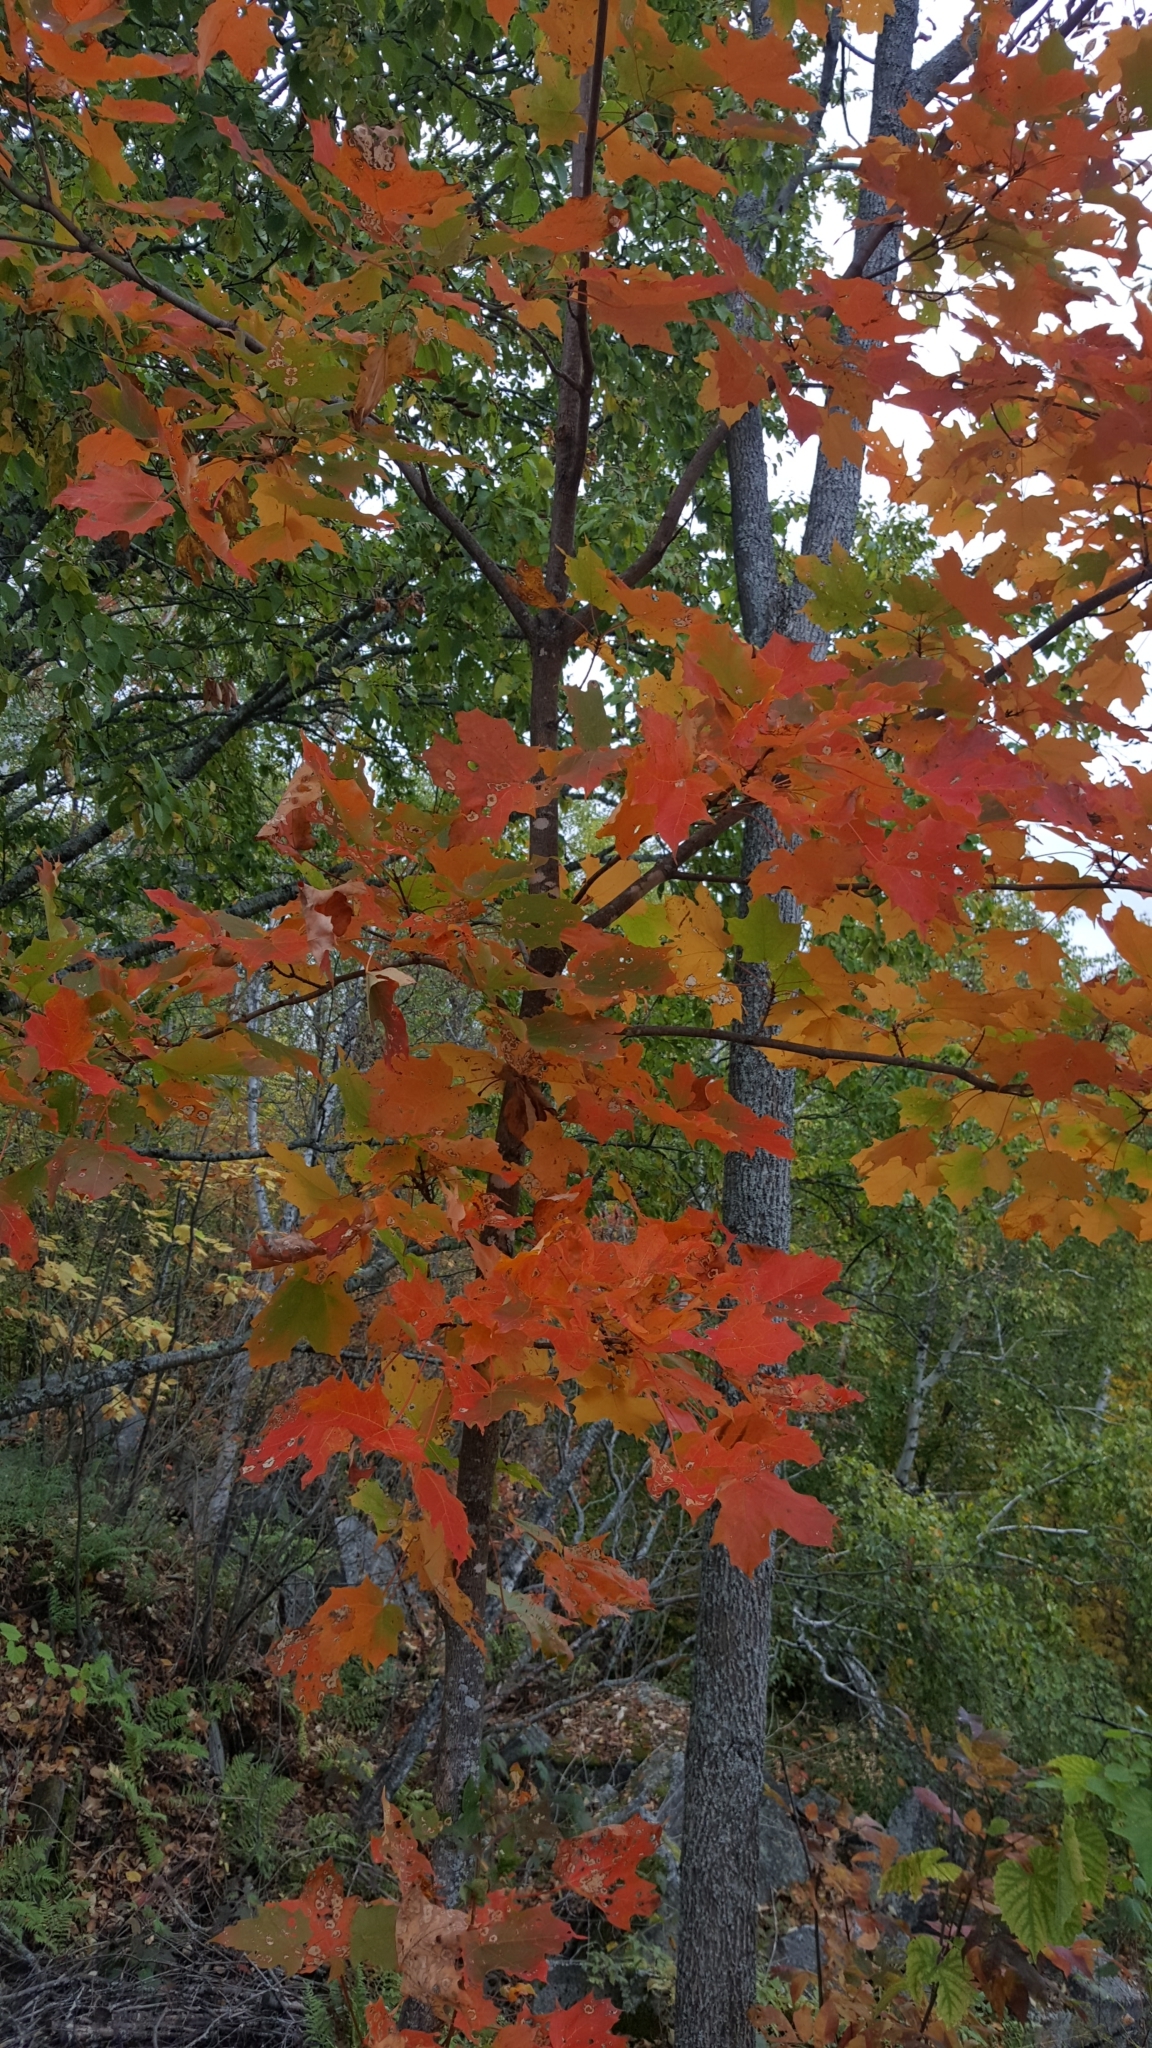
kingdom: Plantae
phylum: Tracheophyta
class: Magnoliopsida
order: Sapindales
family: Sapindaceae
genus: Acer
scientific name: Acer saccharum
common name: Sugar maple
